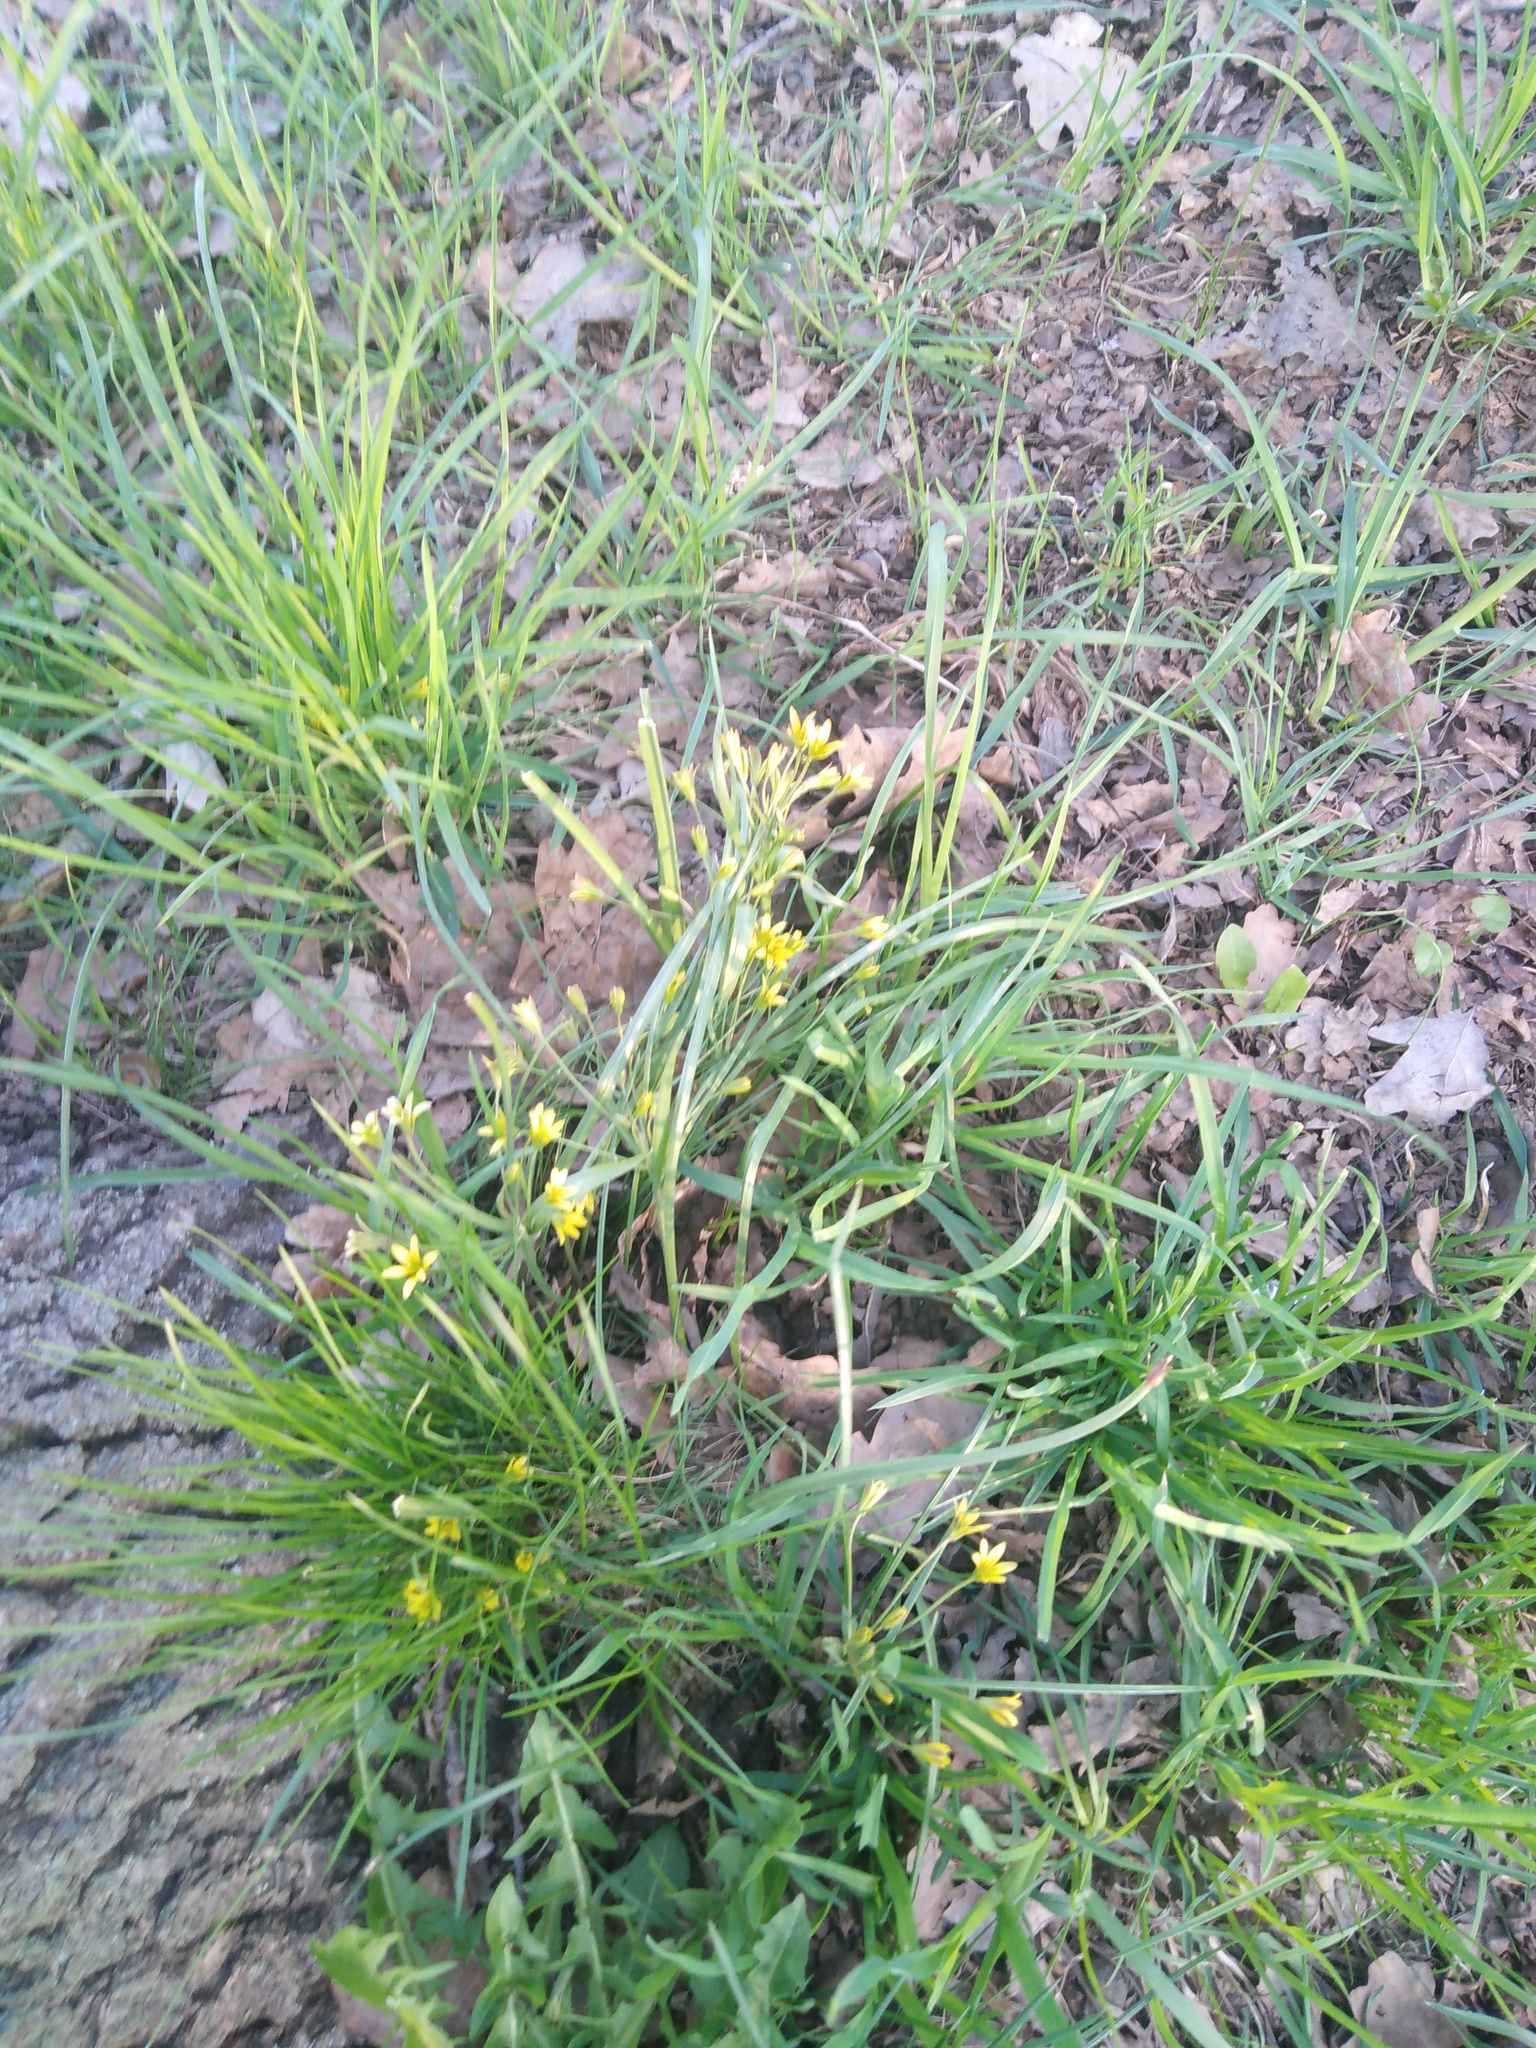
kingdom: Plantae
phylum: Tracheophyta
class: Liliopsida
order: Liliales
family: Liliaceae
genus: Gagea
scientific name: Gagea minima
